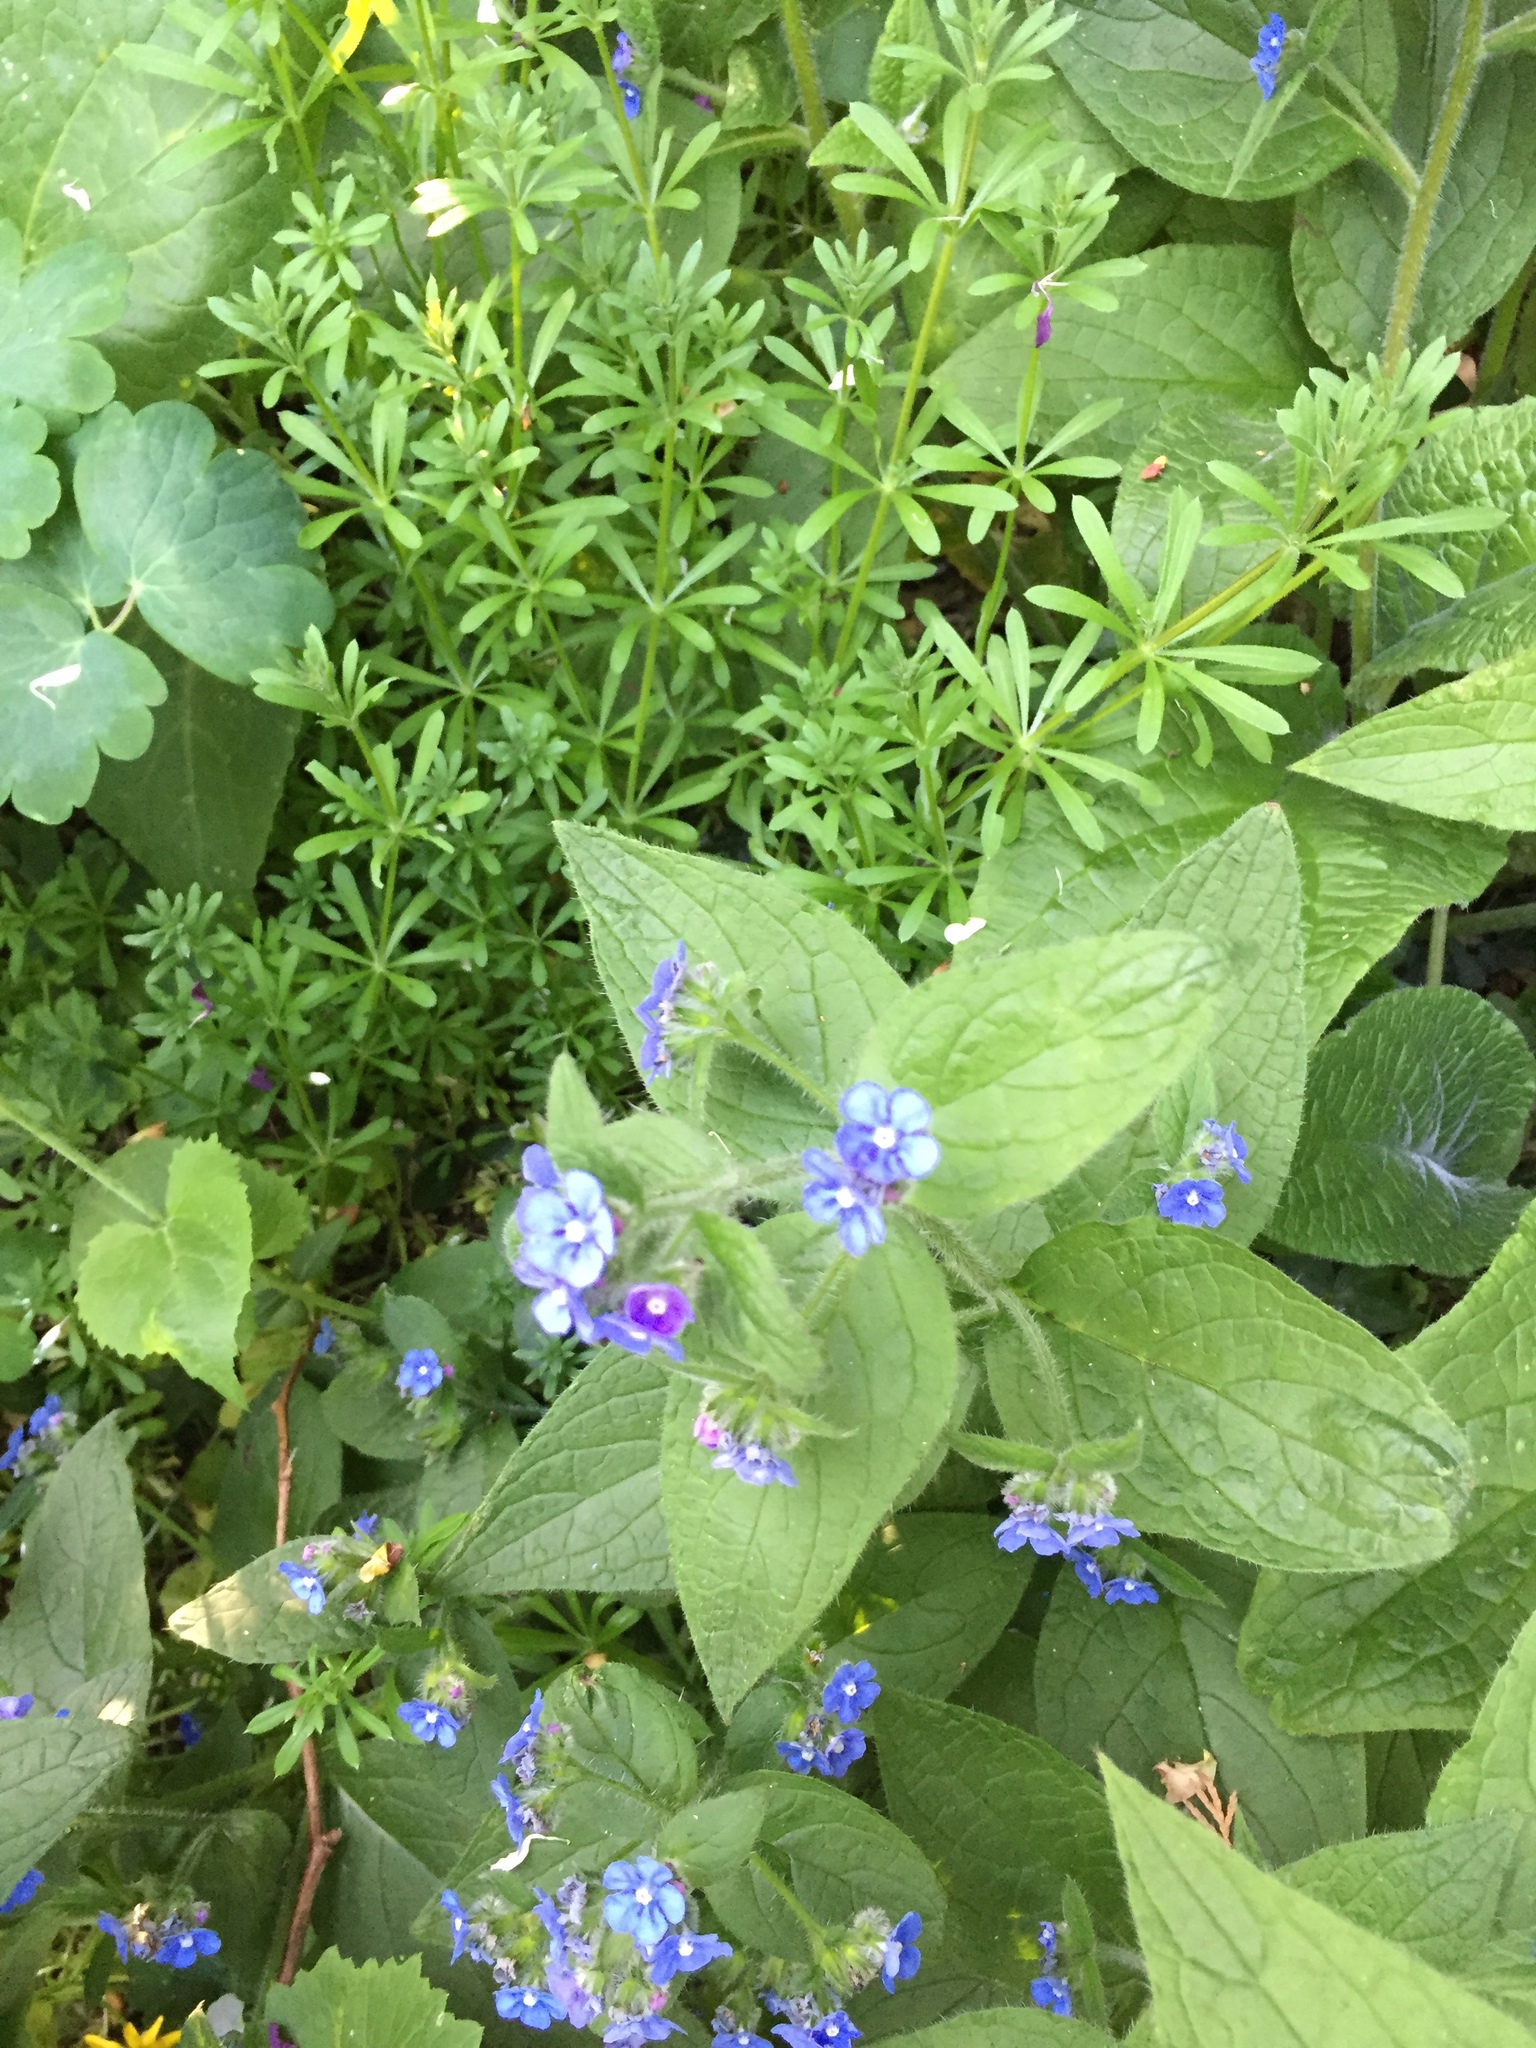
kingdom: Plantae
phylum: Tracheophyta
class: Magnoliopsida
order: Boraginales
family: Boraginaceae
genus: Pentaglottis
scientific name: Pentaglottis sempervirens
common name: Green alkanet
